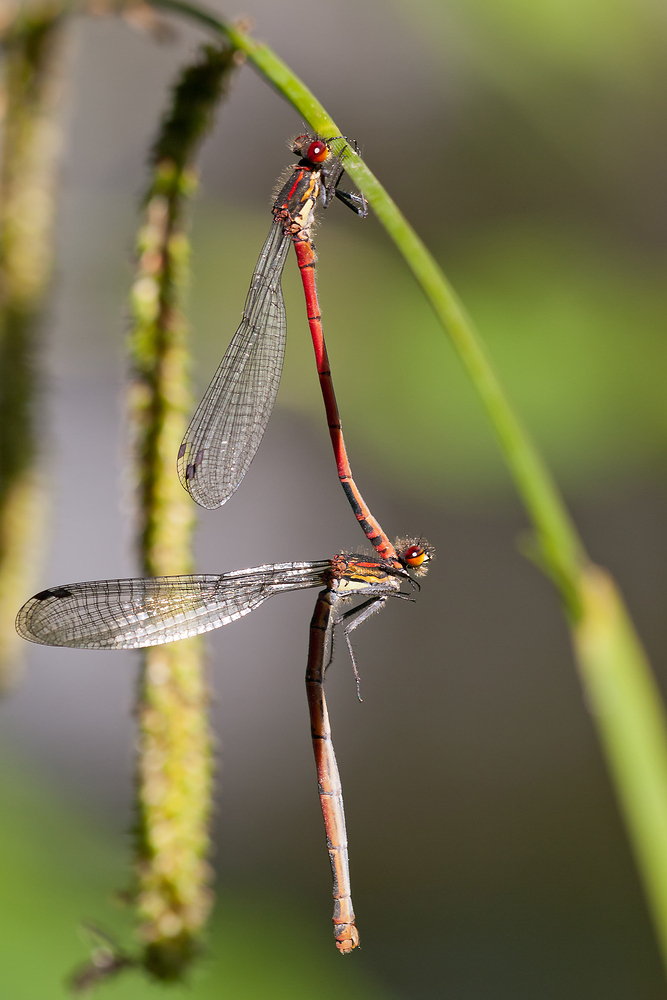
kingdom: Animalia
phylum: Arthropoda
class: Insecta
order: Odonata
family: Coenagrionidae
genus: Pyrrhosoma
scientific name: Pyrrhosoma nymphula
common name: Large red damsel
